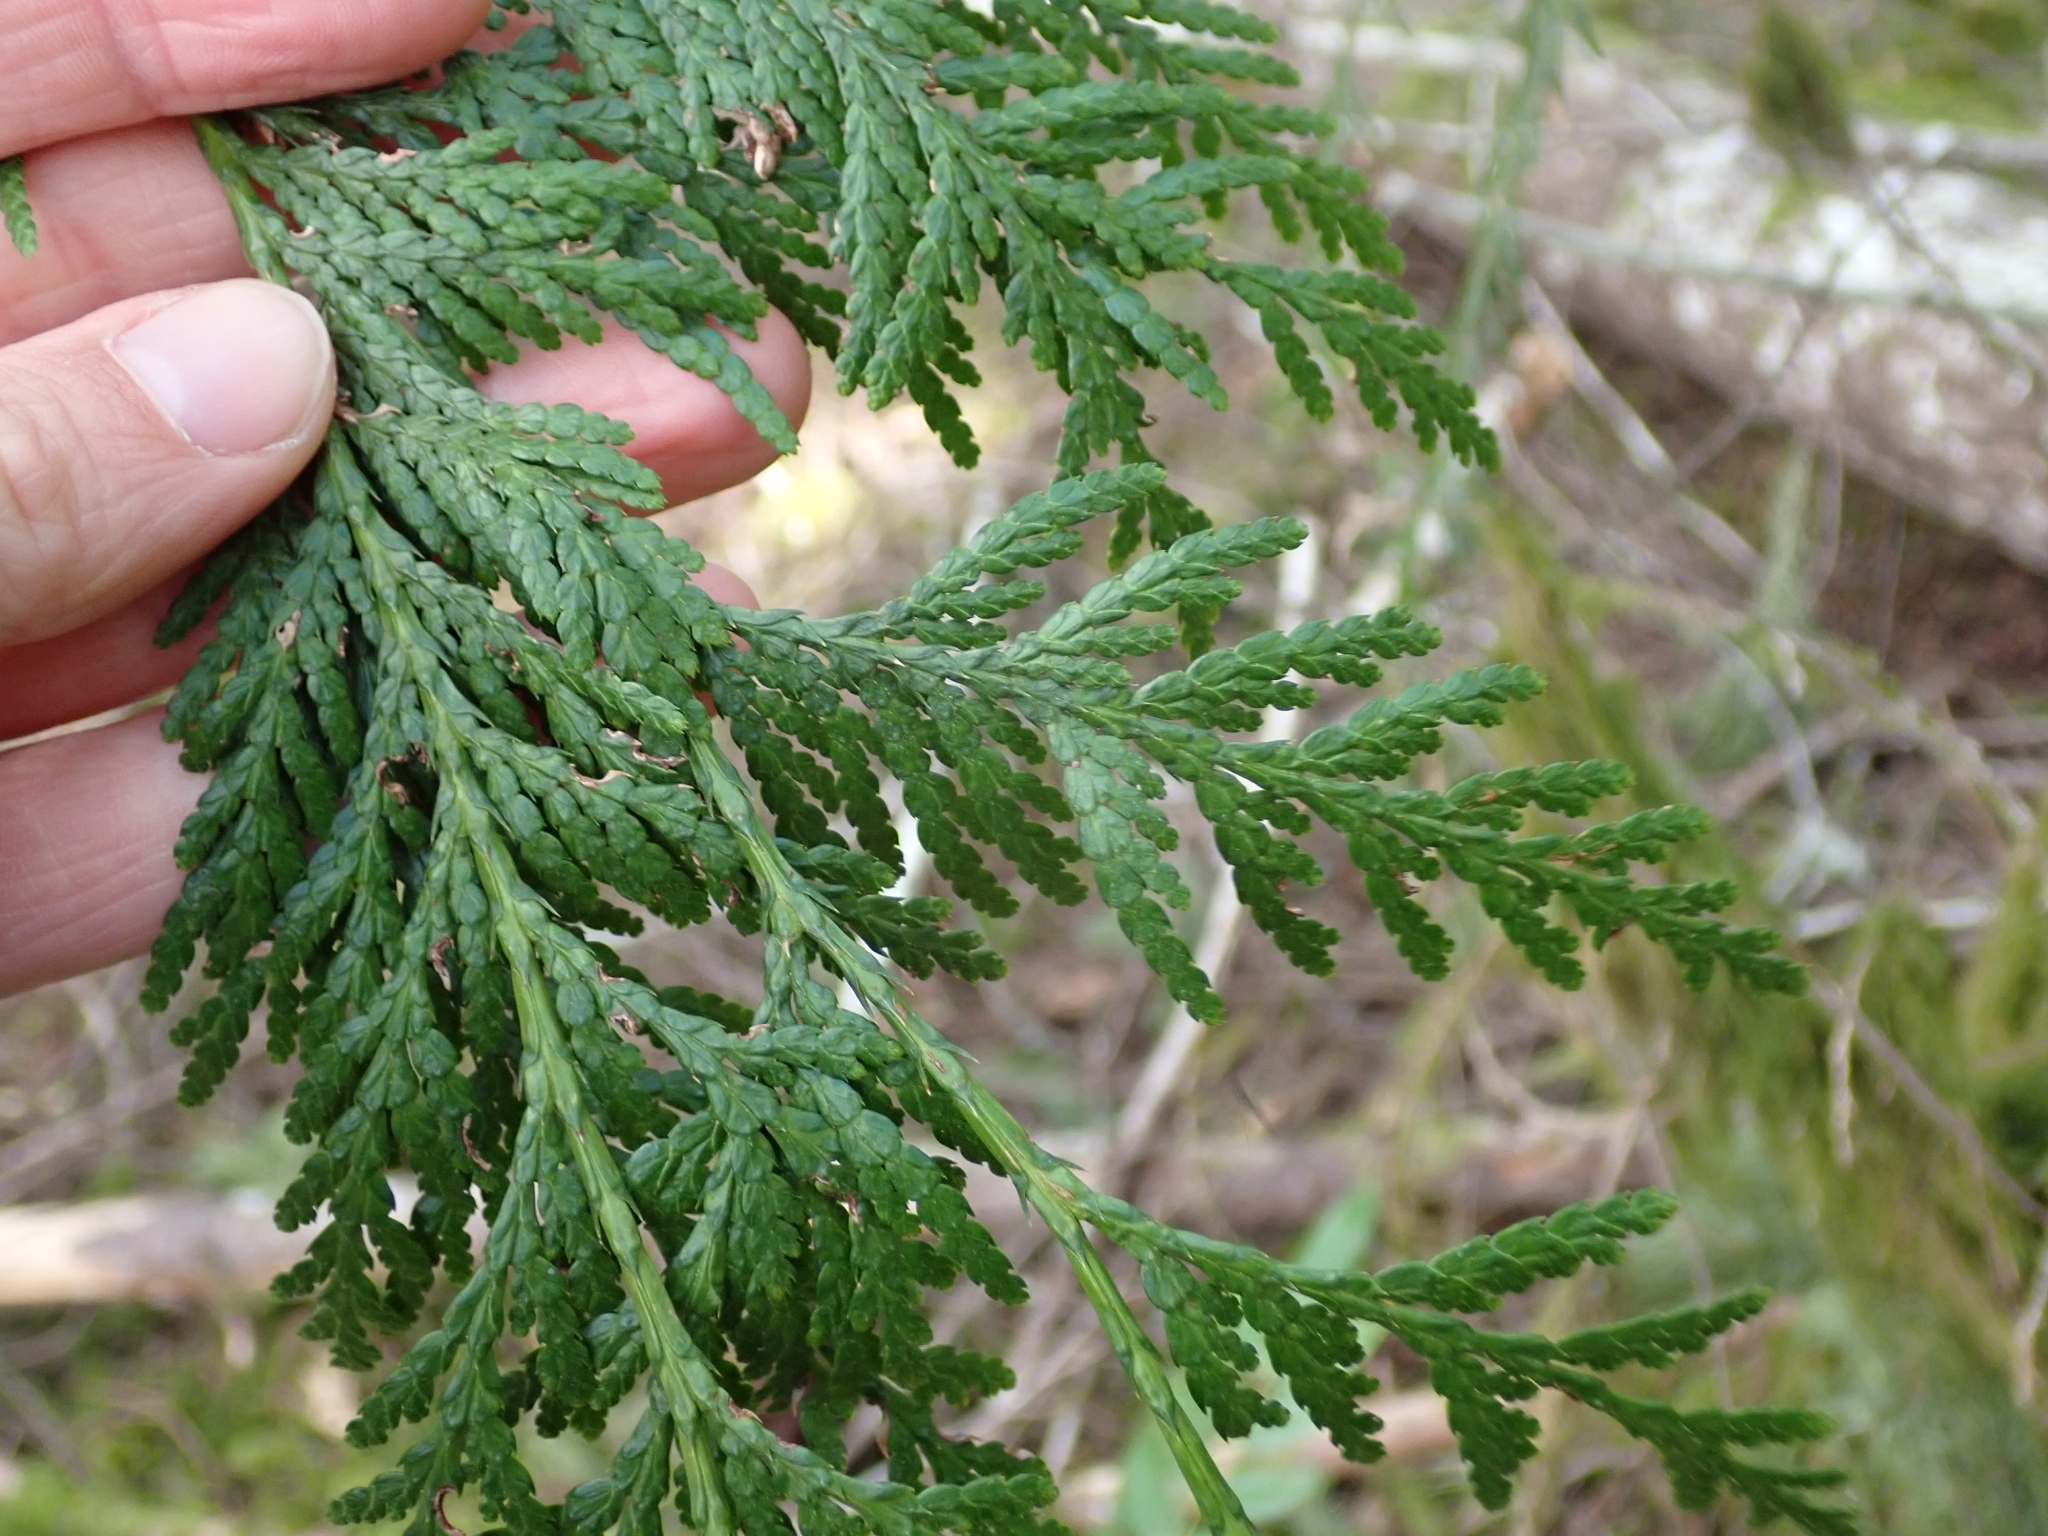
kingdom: Plantae
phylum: Tracheophyta
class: Pinopsida
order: Pinales
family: Cupressaceae
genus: Thuja
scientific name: Thuja plicata
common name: Western red-cedar
